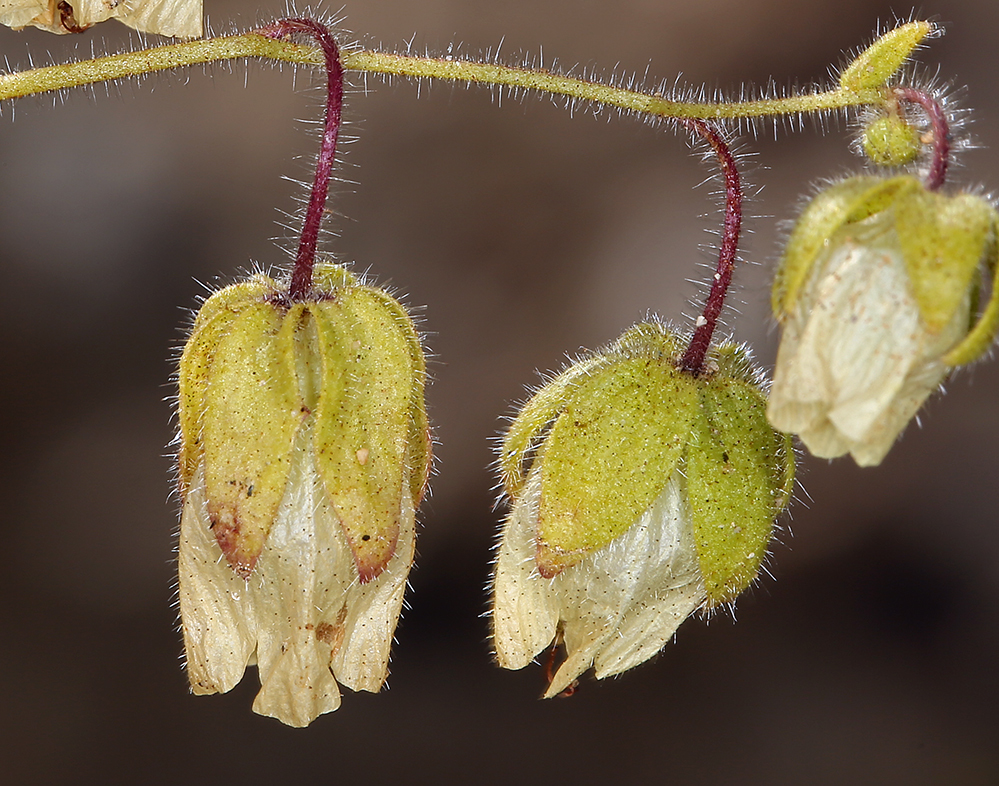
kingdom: Plantae
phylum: Tracheophyta
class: Magnoliopsida
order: Boraginales
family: Hydrophyllaceae
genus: Emmenanthe
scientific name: Emmenanthe penduliflora
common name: Whispering-bells
